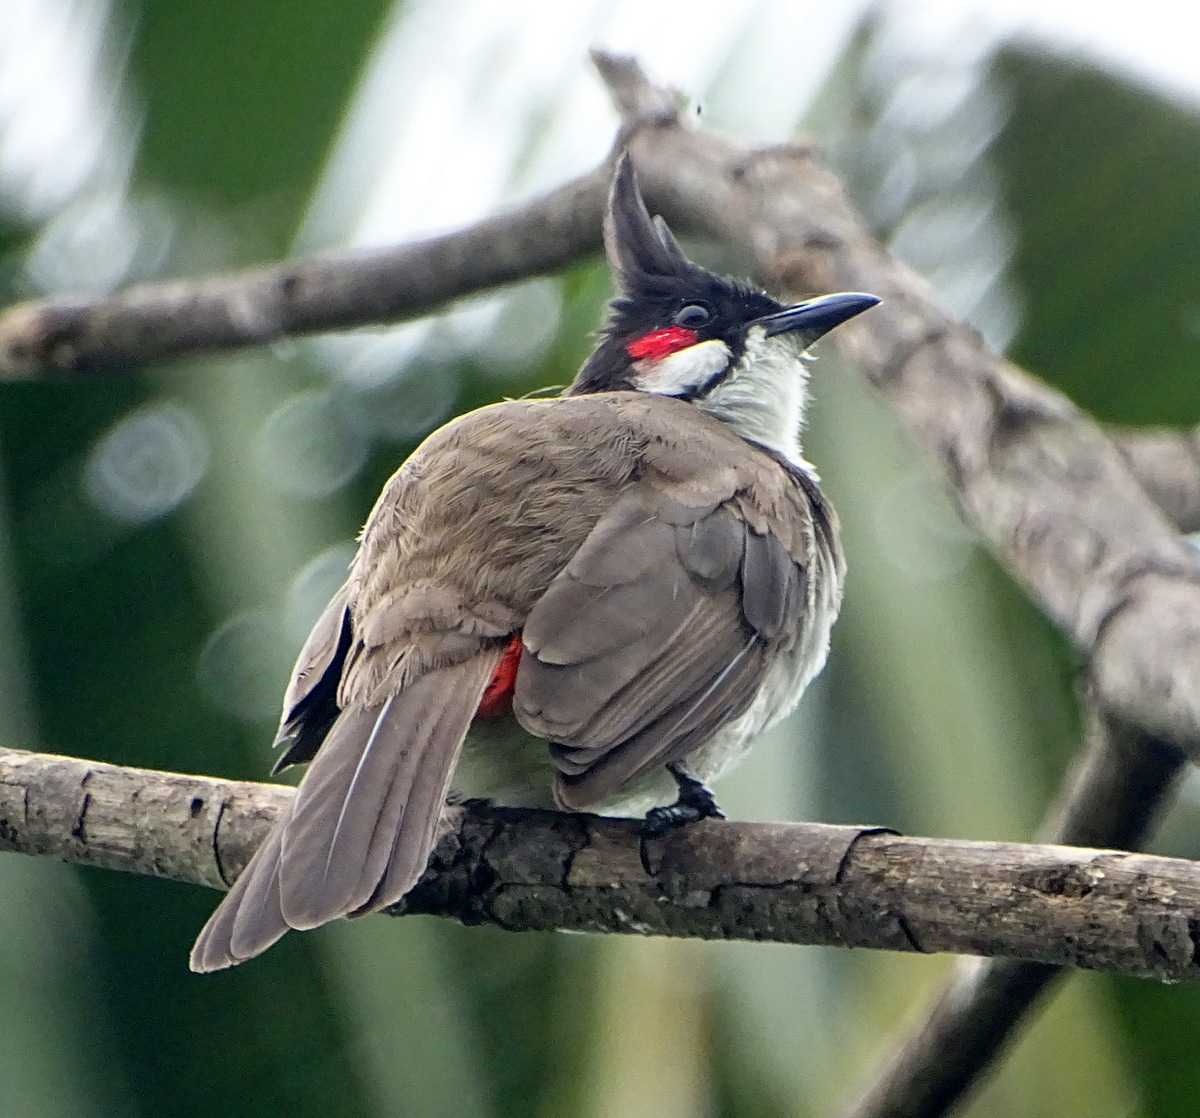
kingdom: Animalia
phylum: Chordata
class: Aves
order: Passeriformes
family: Pycnonotidae
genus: Pycnonotus
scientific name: Pycnonotus jocosus
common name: Red-whiskered bulbul
